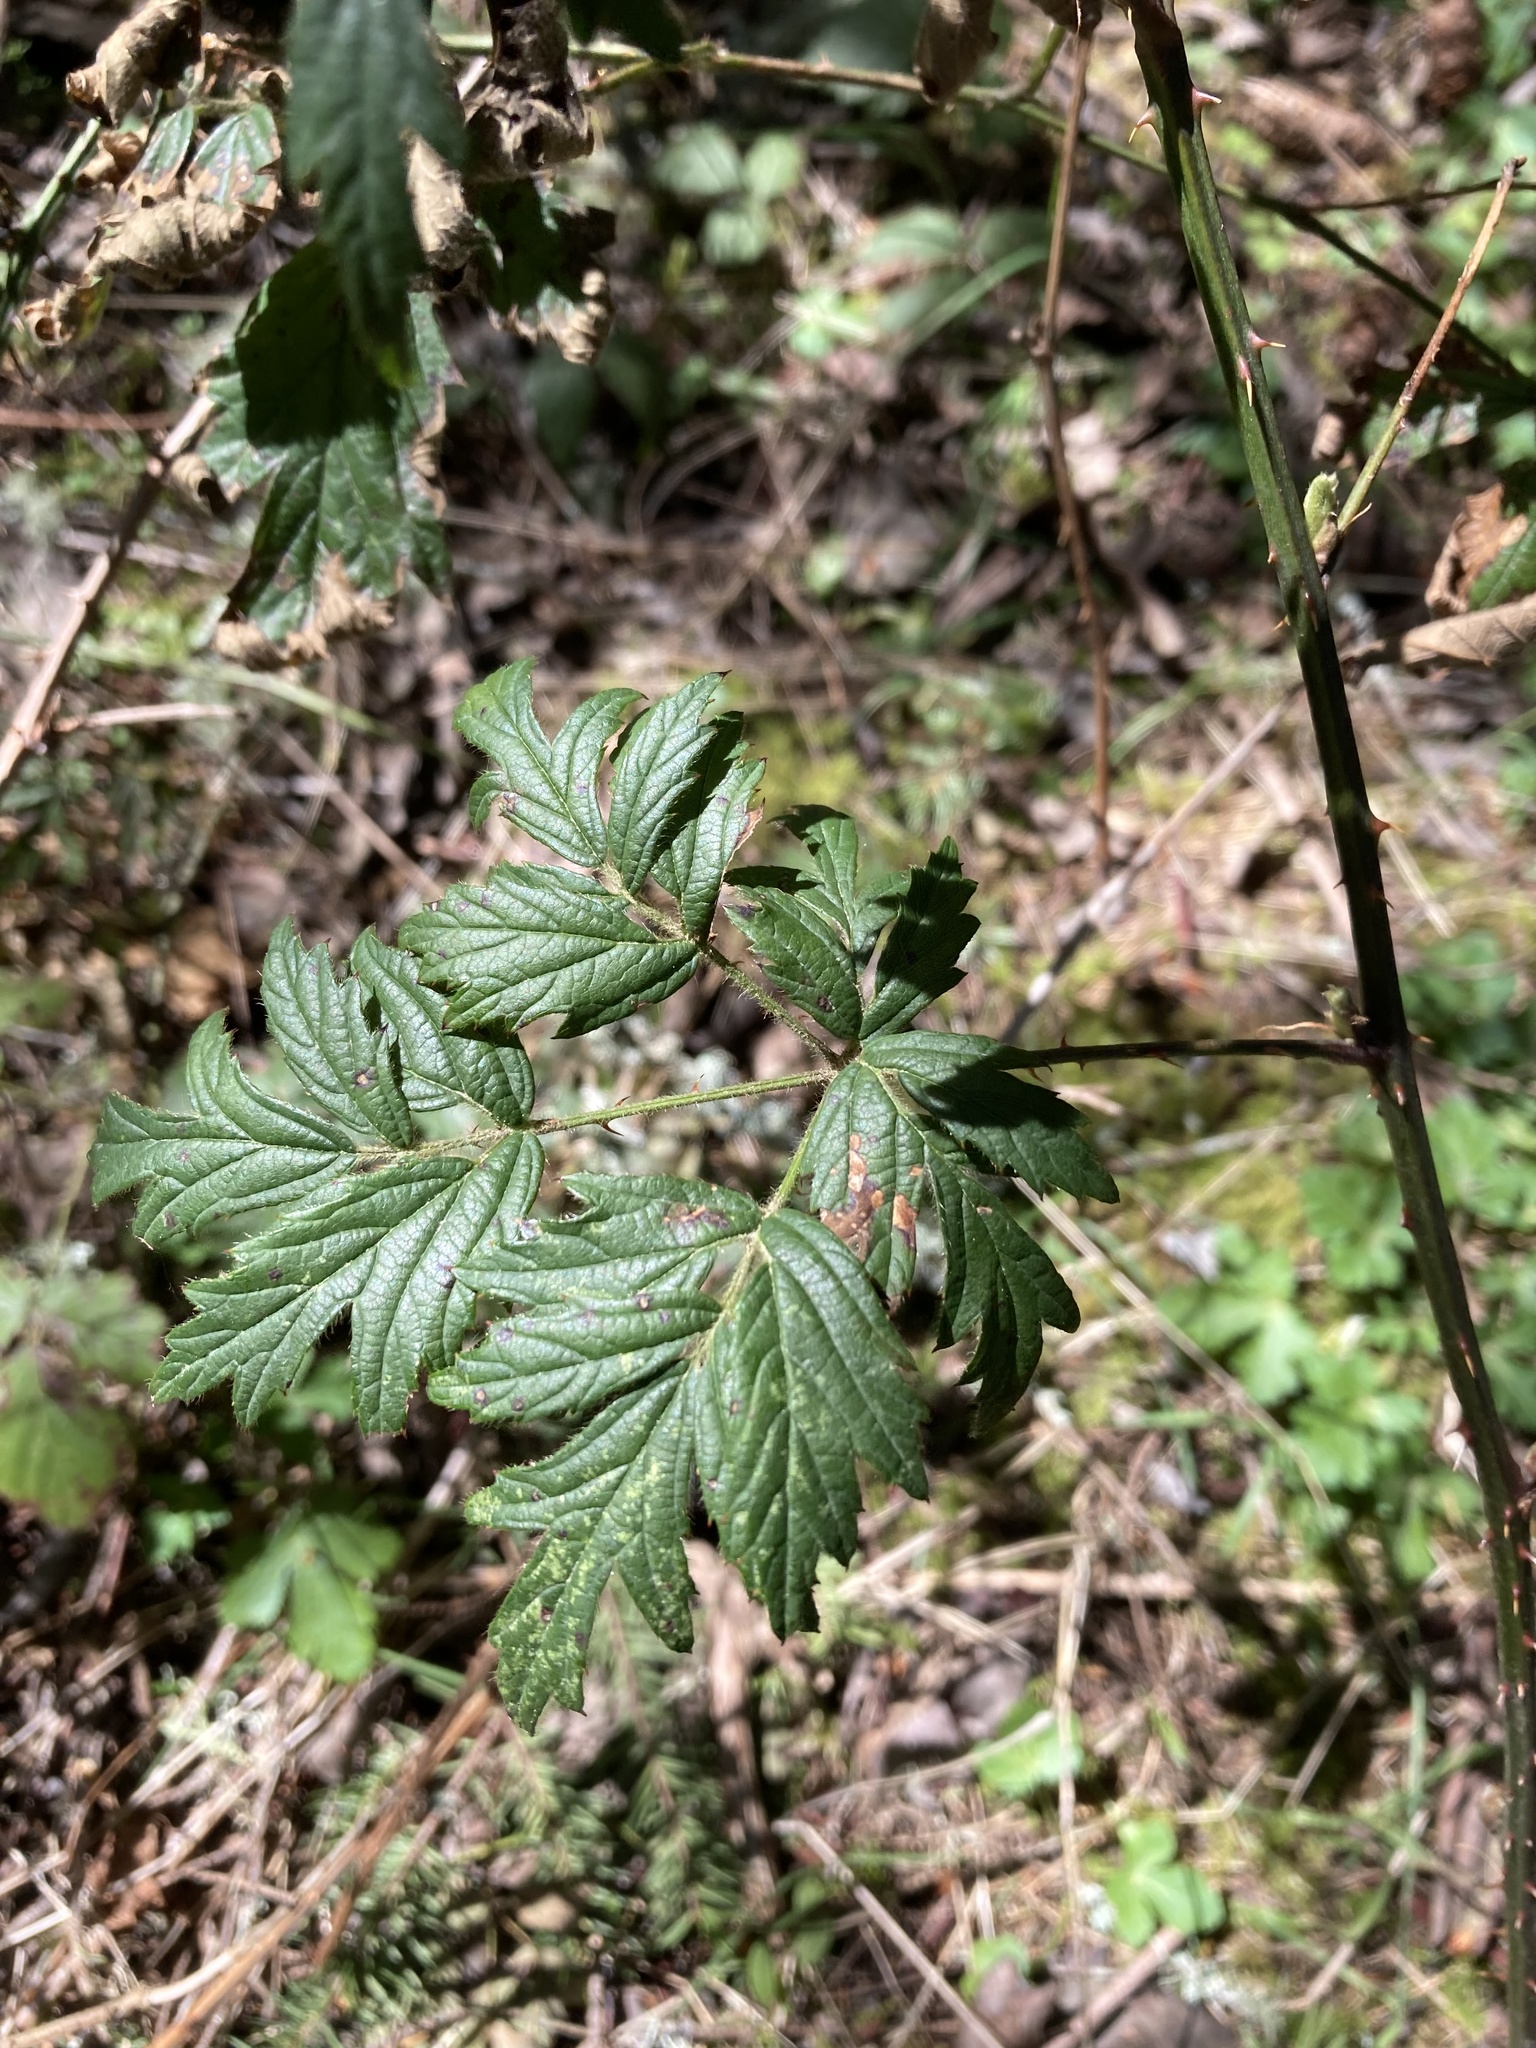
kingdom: Plantae
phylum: Tracheophyta
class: Magnoliopsida
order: Rosales
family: Rosaceae
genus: Rubus
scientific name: Rubus laciniatus
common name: Evergreen blackberry
